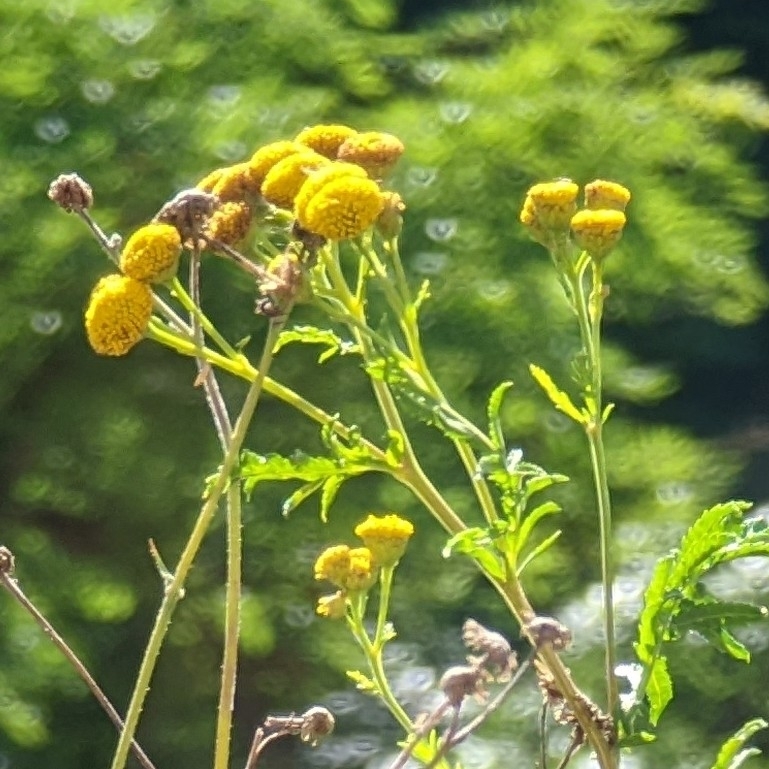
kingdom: Plantae
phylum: Tracheophyta
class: Magnoliopsida
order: Asterales
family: Asteraceae
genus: Tanacetum
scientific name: Tanacetum vulgare
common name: Common tansy
